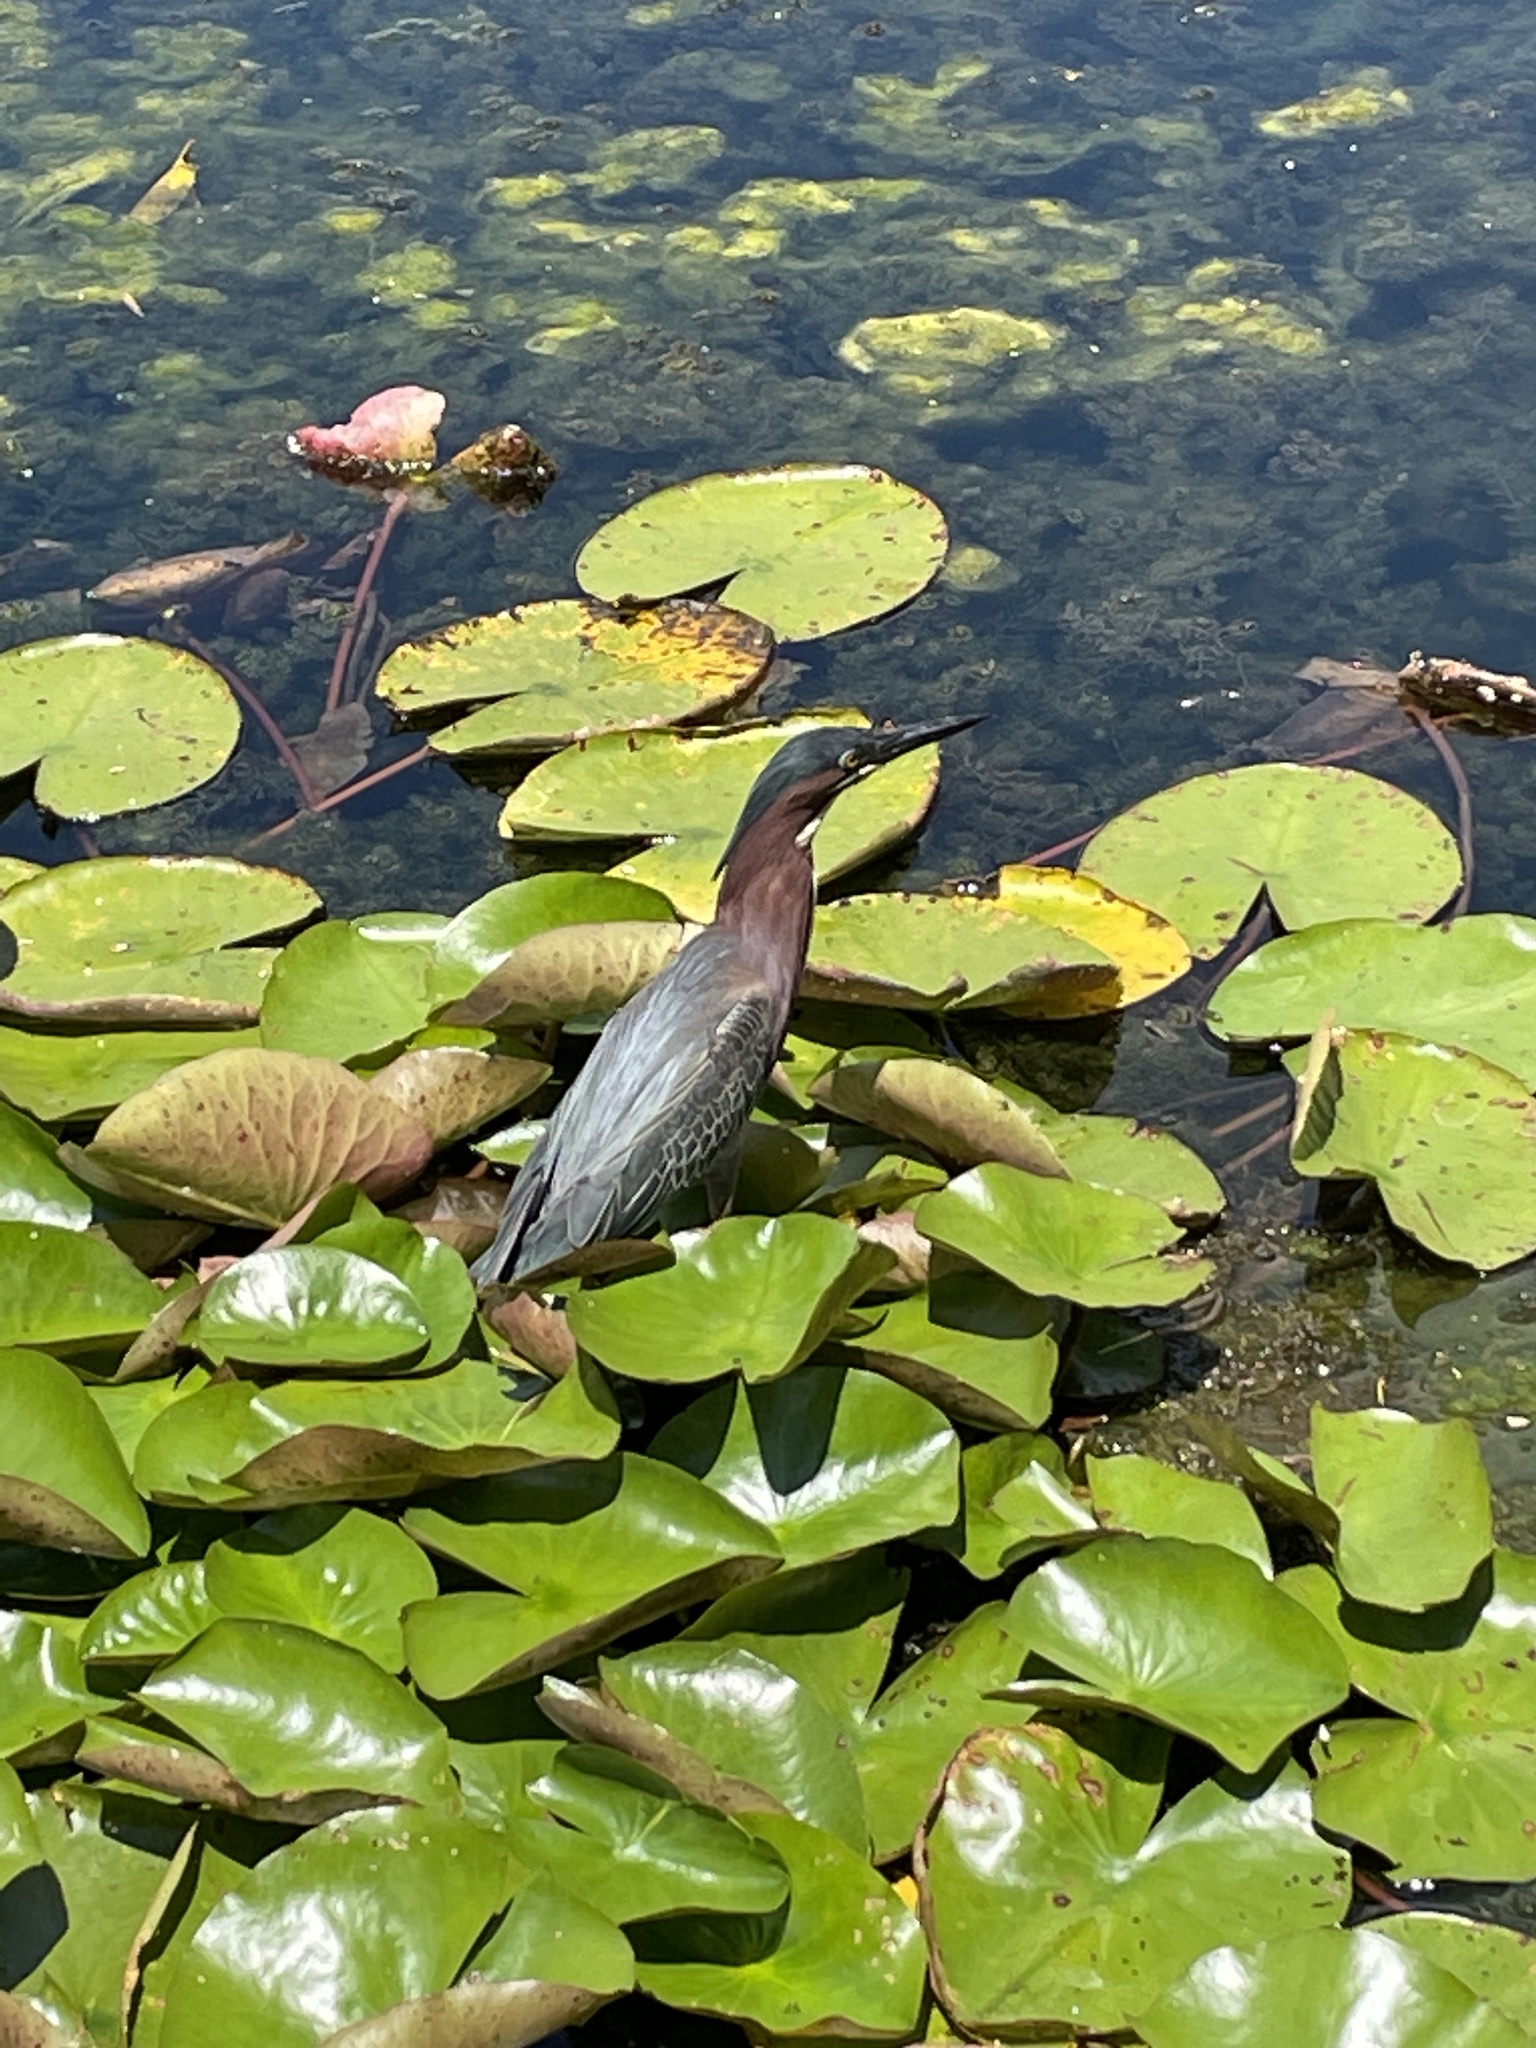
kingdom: Animalia
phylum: Chordata
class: Aves
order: Pelecaniformes
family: Ardeidae
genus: Butorides
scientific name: Butorides virescens
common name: Green heron
